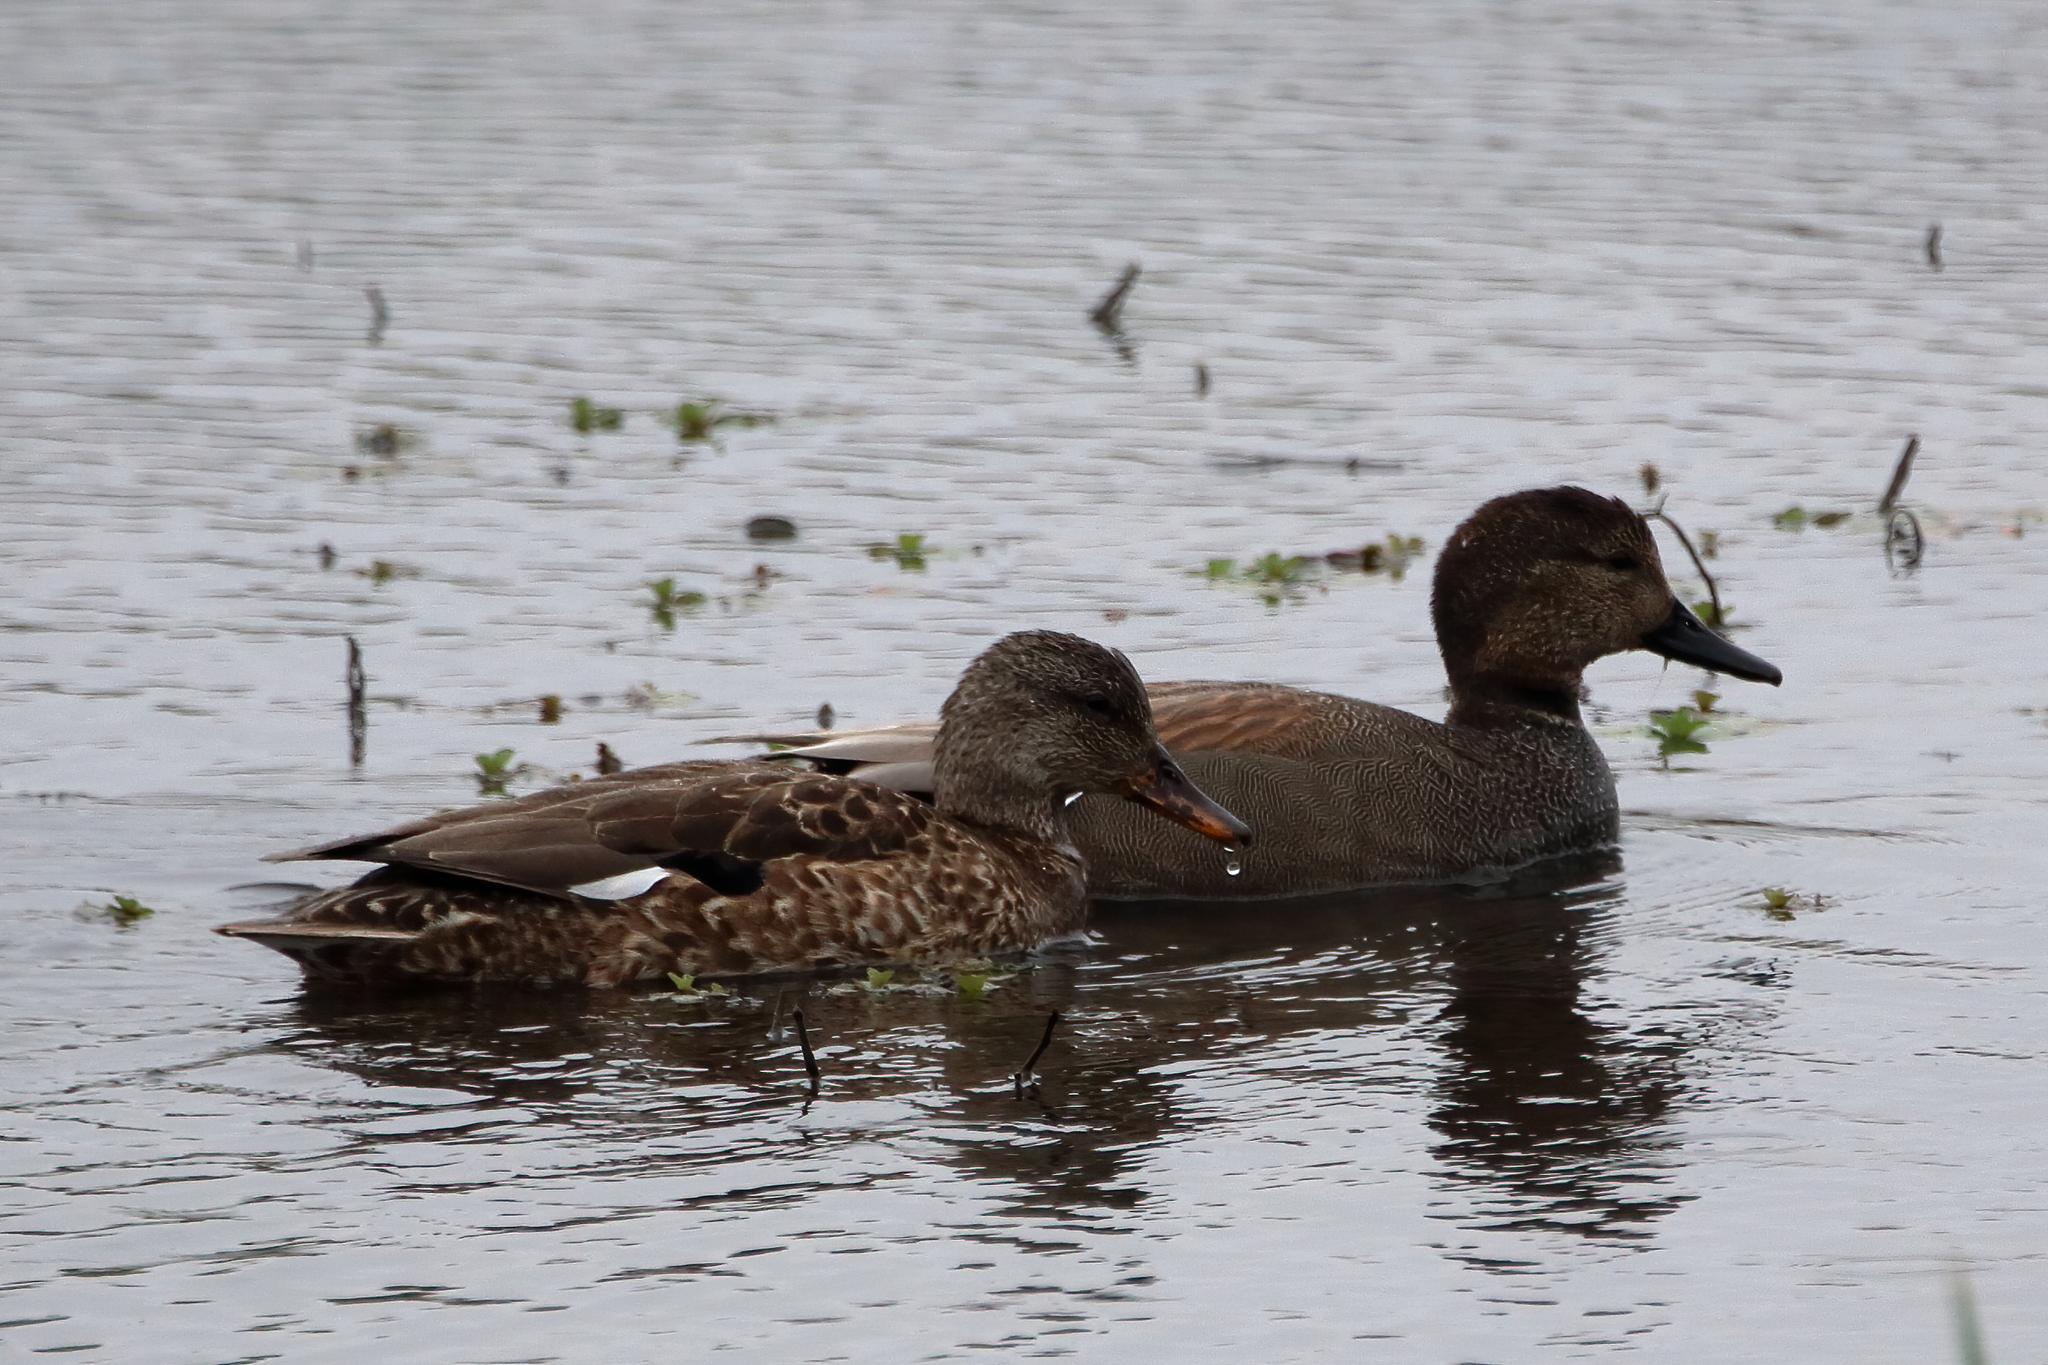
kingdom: Animalia
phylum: Chordata
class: Aves
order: Anseriformes
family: Anatidae
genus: Mareca
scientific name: Mareca strepera
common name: Gadwall
